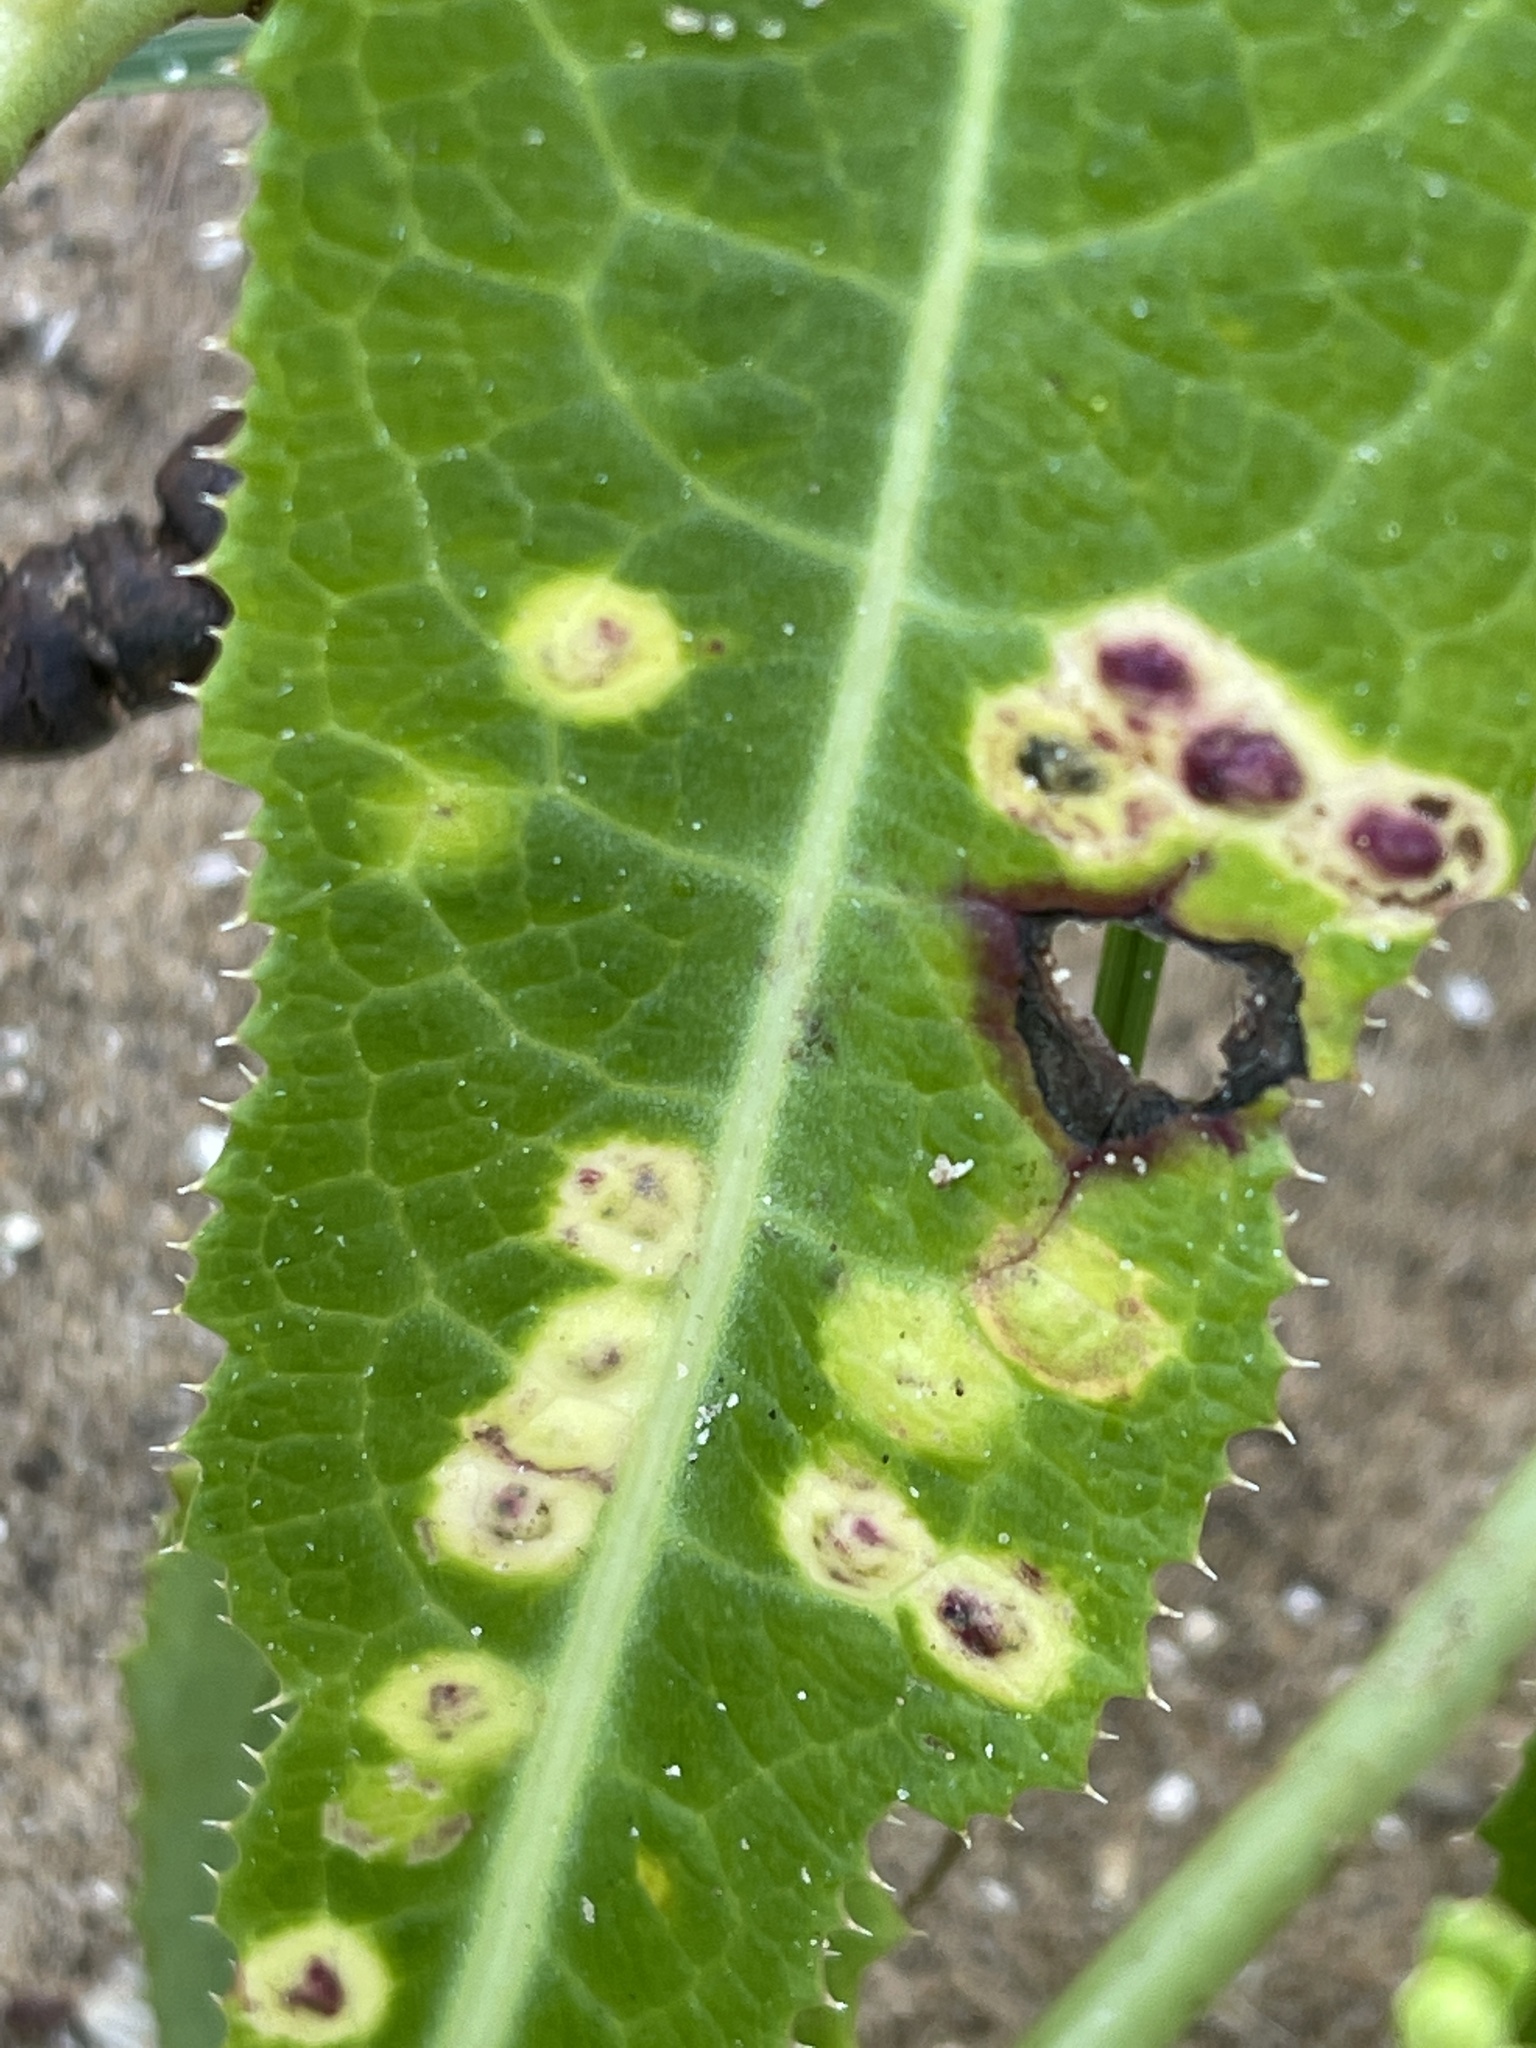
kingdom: Animalia
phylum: Arthropoda
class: Insecta
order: Diptera
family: Cecidomyiidae
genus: Cystiphora
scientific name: Cystiphora sonchi
